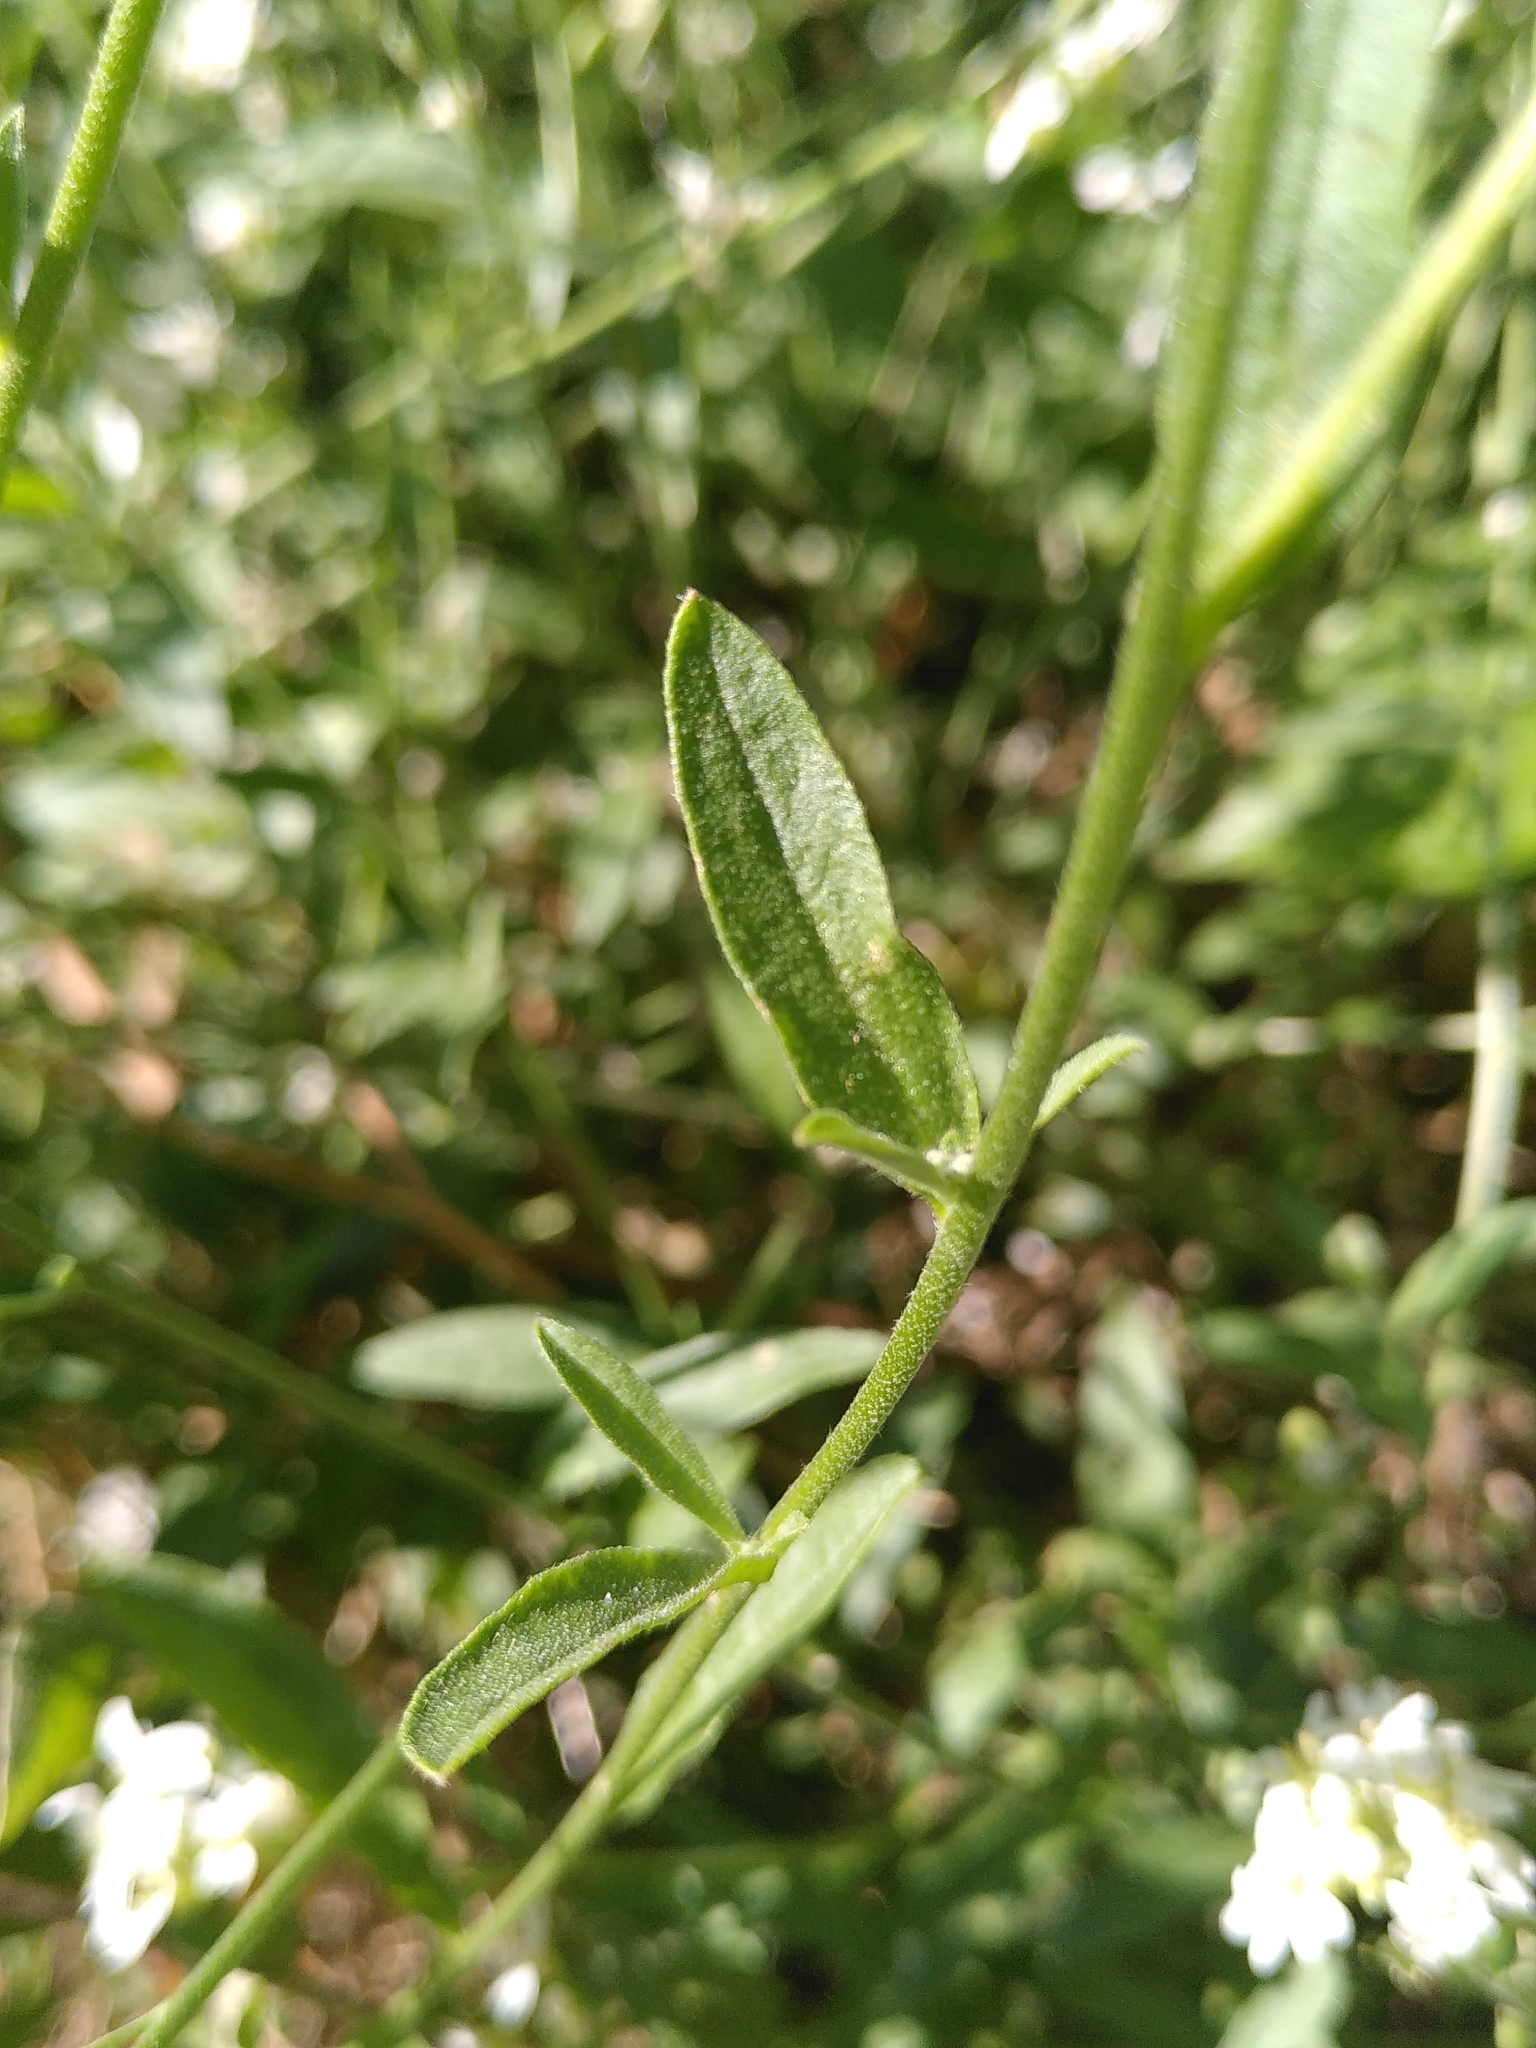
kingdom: Plantae
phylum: Tracheophyta
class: Magnoliopsida
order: Brassicales
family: Brassicaceae
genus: Berteroa
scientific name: Berteroa incana
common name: Hoary alison
